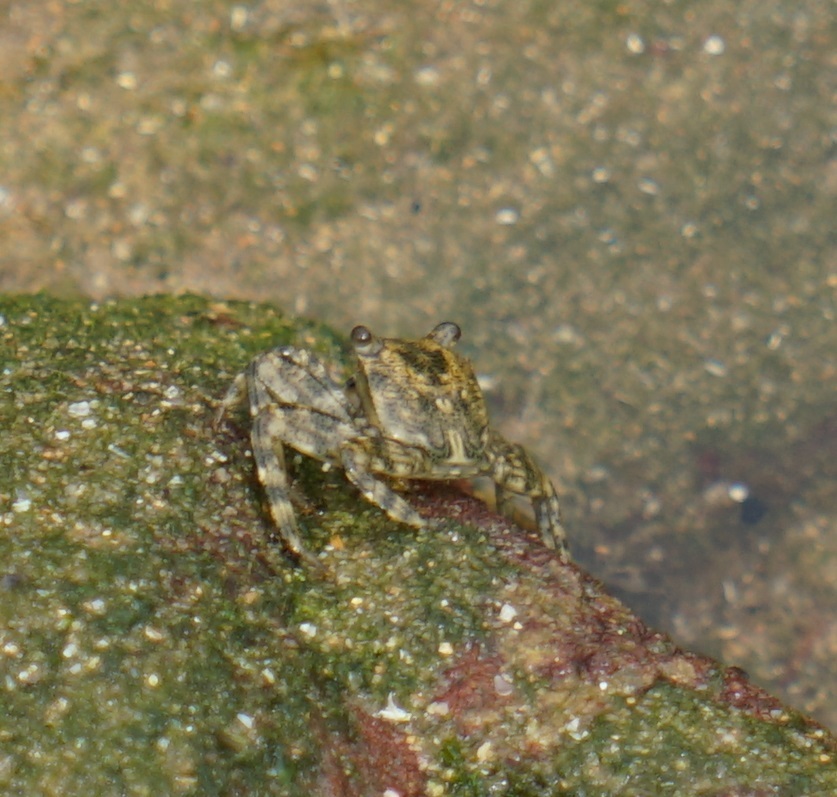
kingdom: Animalia
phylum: Arthropoda
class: Malacostraca
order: Decapoda
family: Grapsidae
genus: Leptograpsus
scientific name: Leptograpsus variegatus
